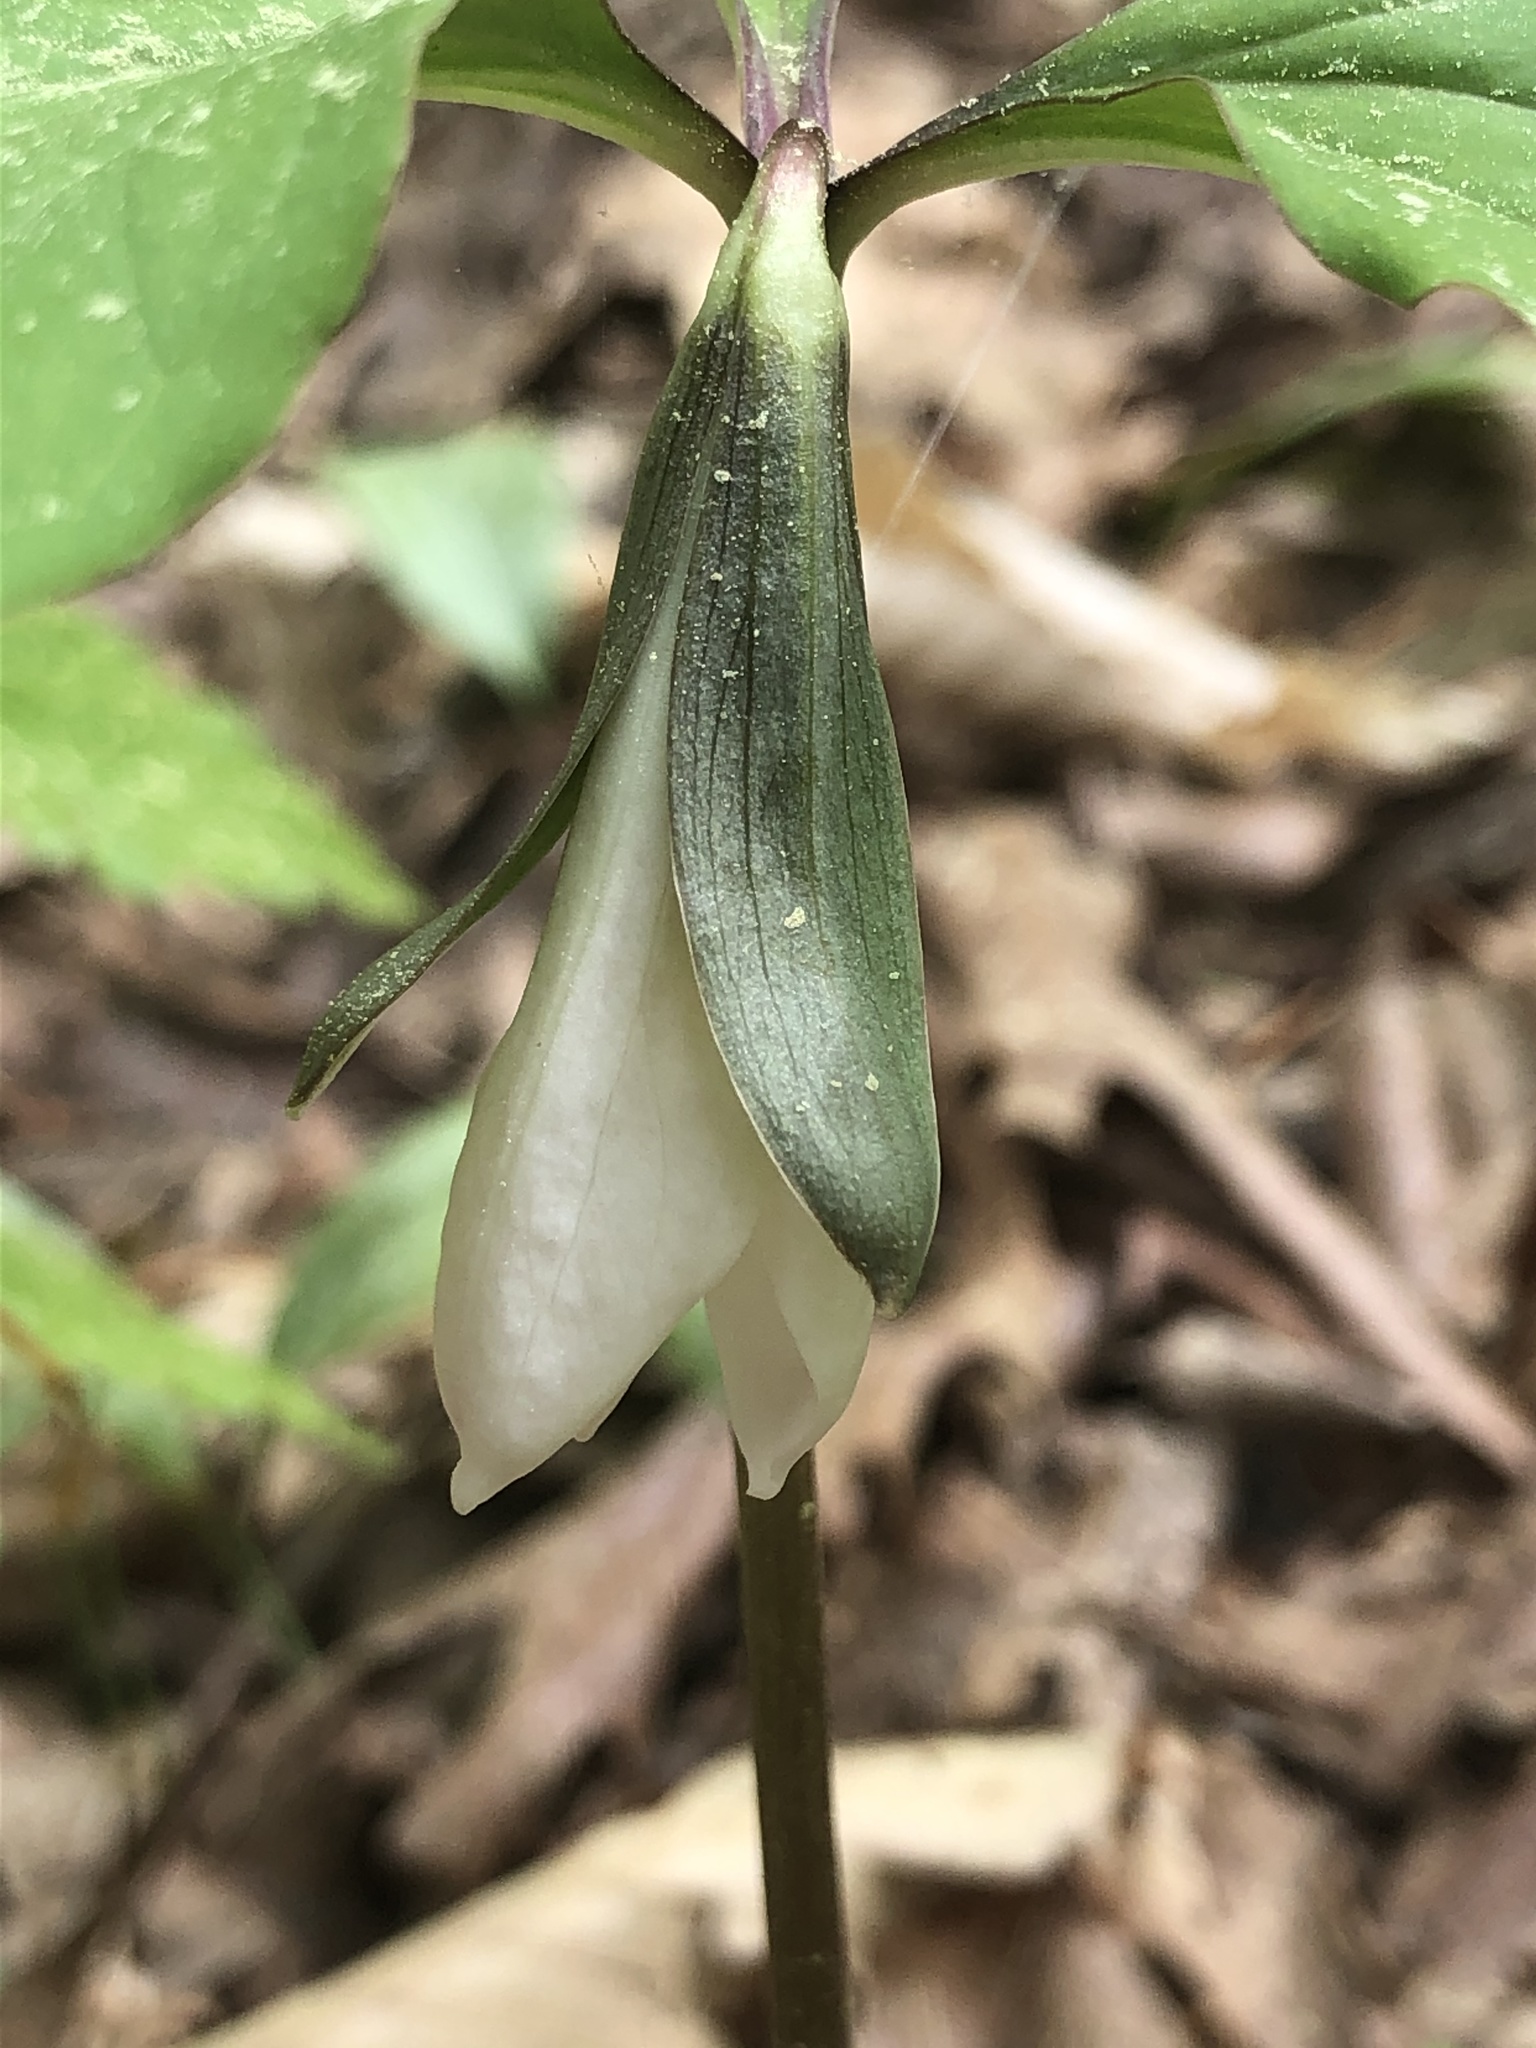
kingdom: Plantae
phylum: Tracheophyta
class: Liliopsida
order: Liliales
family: Melanthiaceae
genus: Trillium
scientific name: Trillium catesbaei
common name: Bashful trillium
